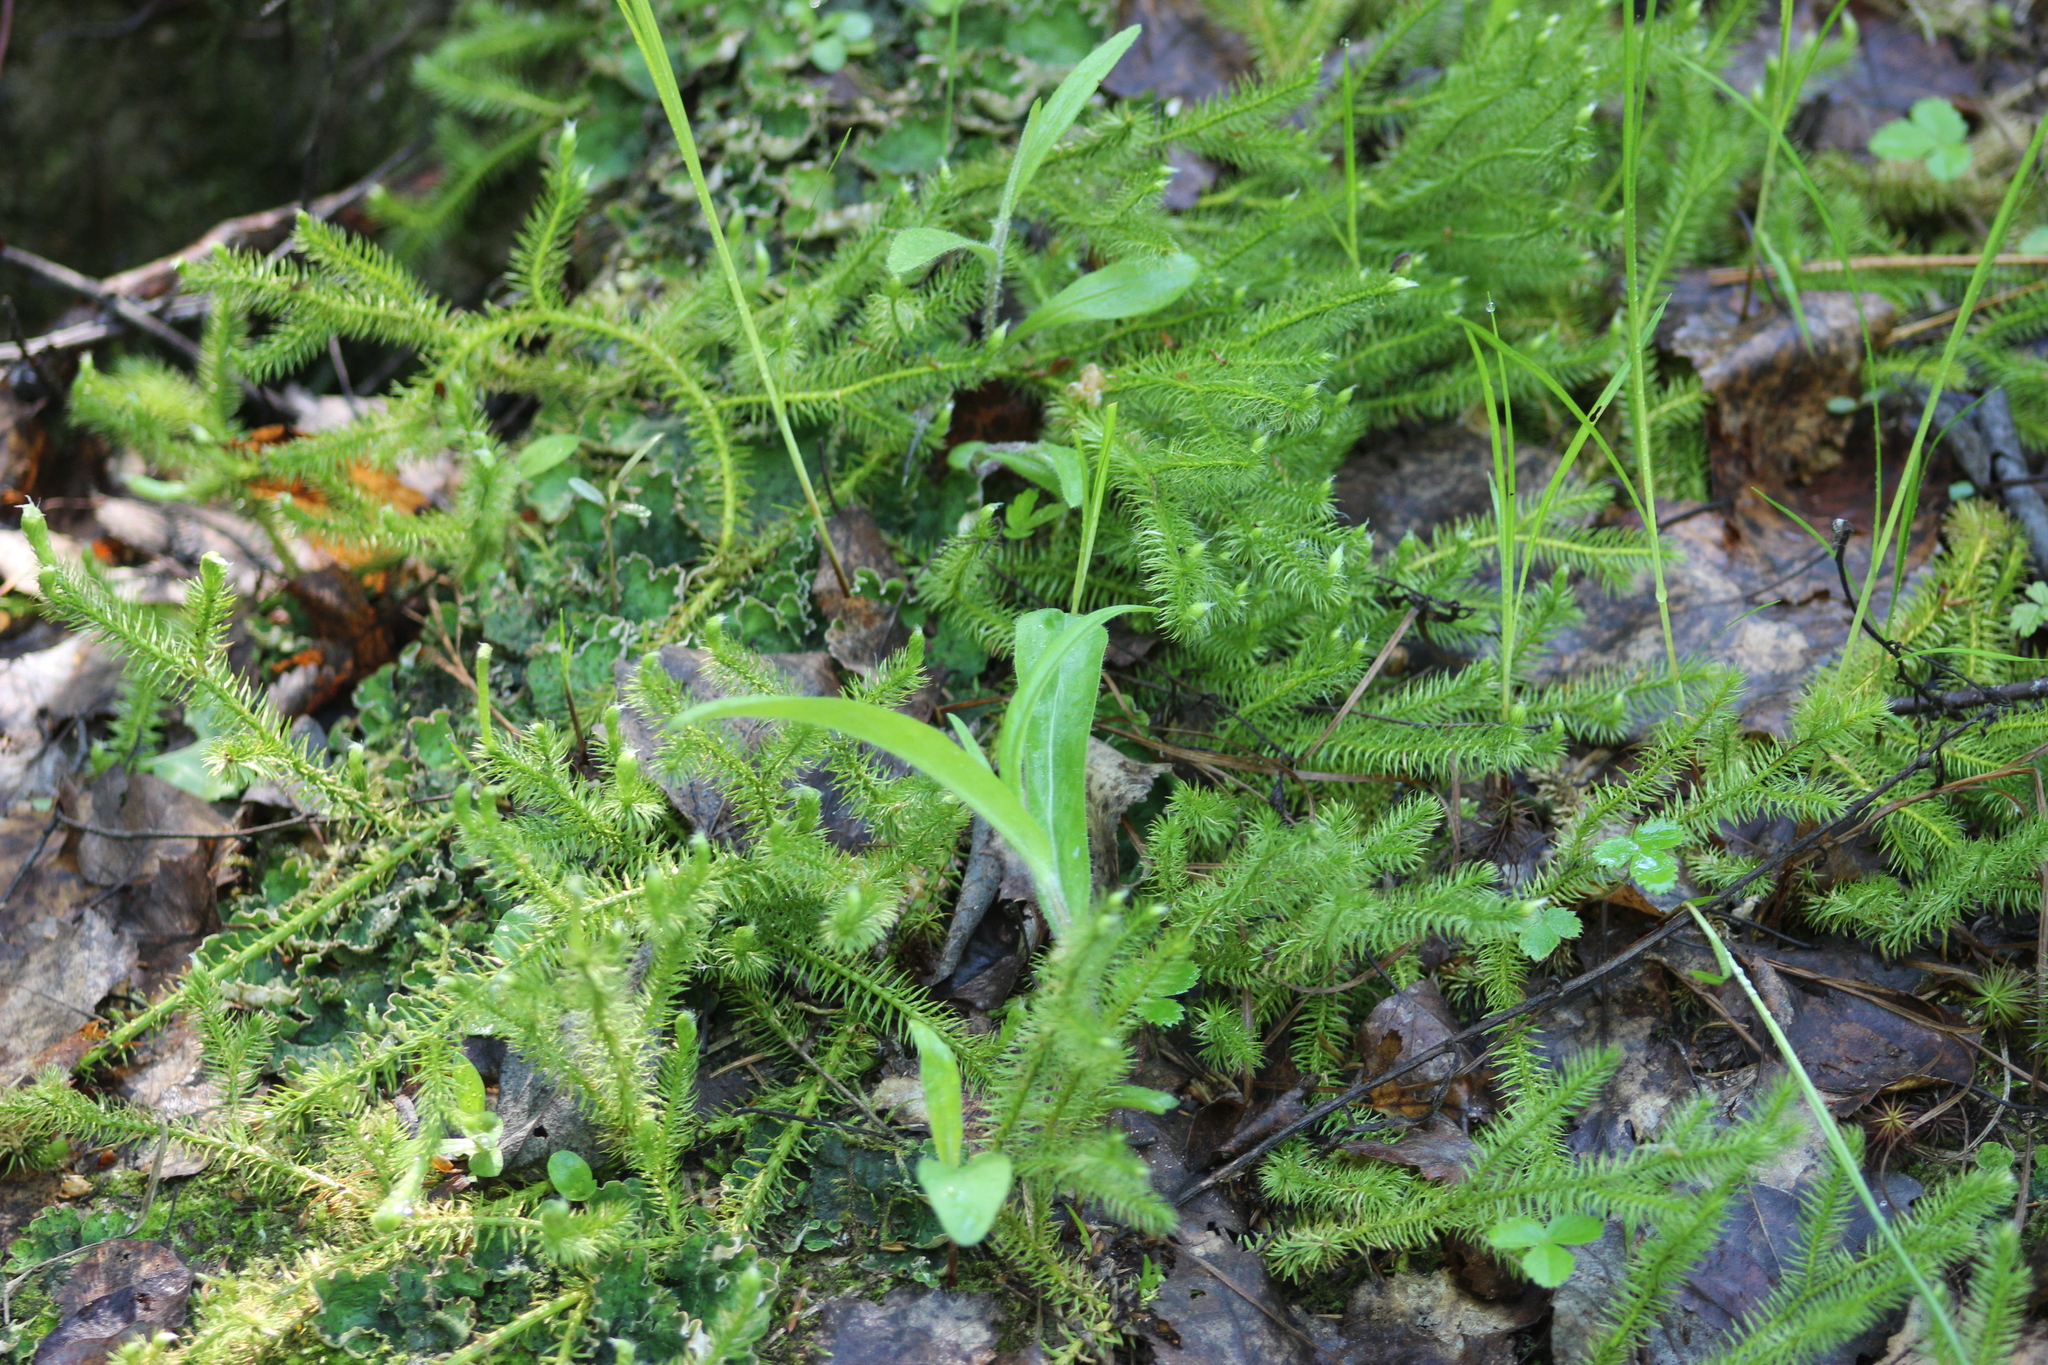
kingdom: Plantae
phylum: Tracheophyta
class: Lycopodiopsida
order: Lycopodiales
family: Lycopodiaceae
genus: Lycopodium
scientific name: Lycopodium clavatum
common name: Stag's-horn clubmoss
